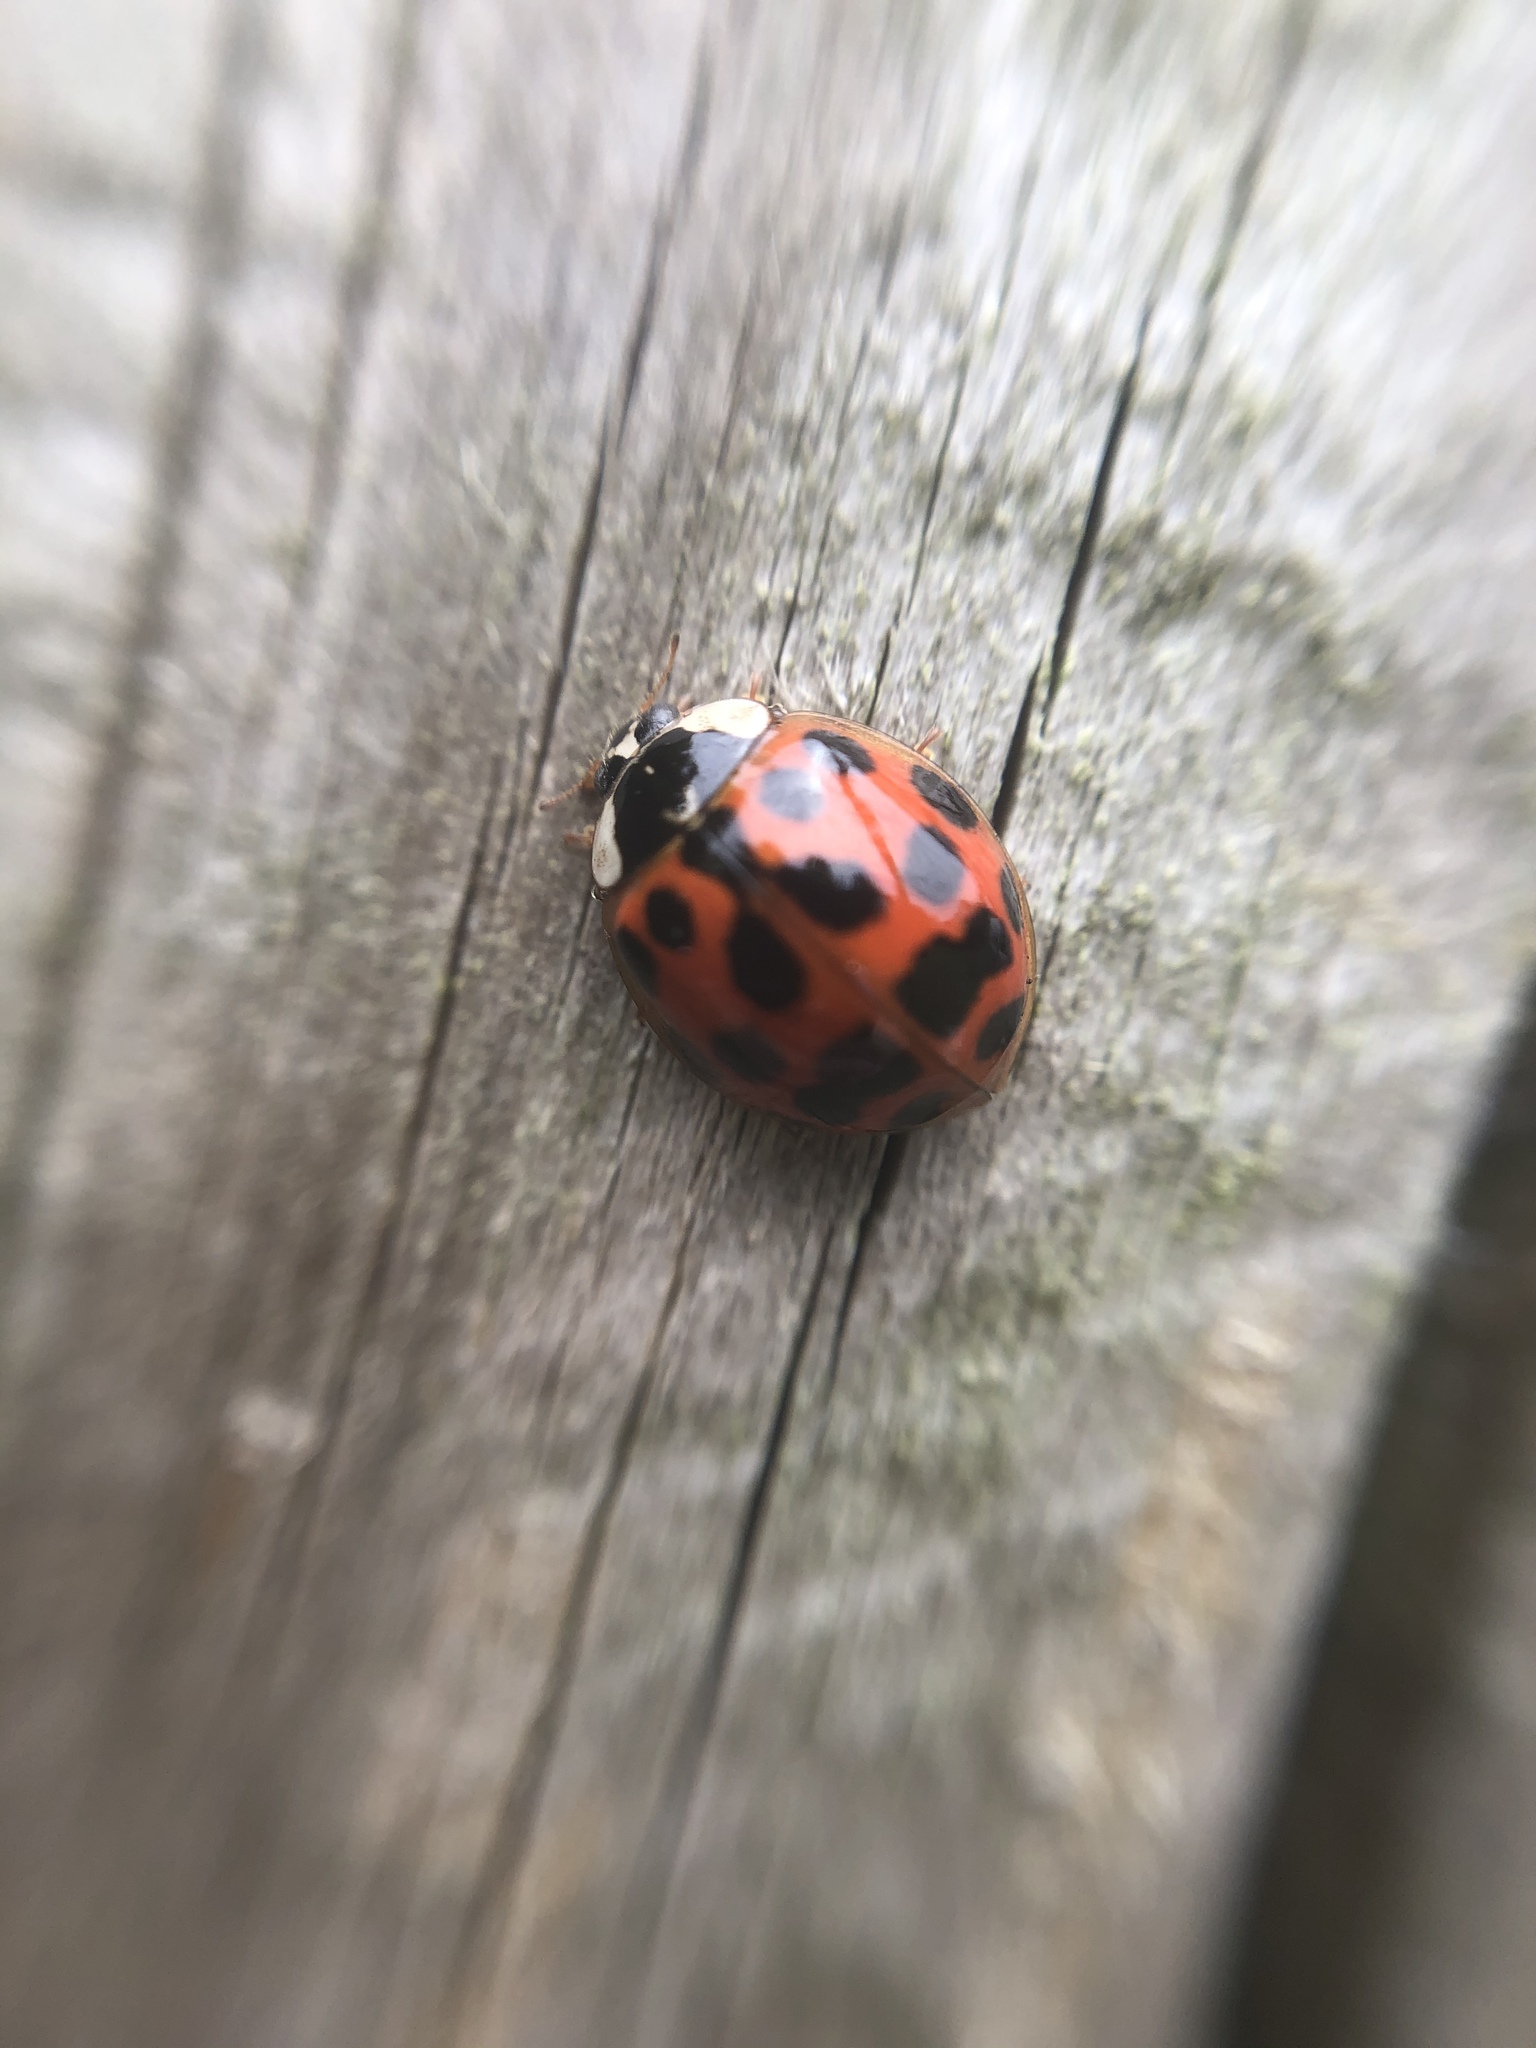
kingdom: Animalia
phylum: Arthropoda
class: Insecta
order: Coleoptera
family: Coccinellidae
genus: Harmonia
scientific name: Harmonia axyridis
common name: Harlequin ladybird
